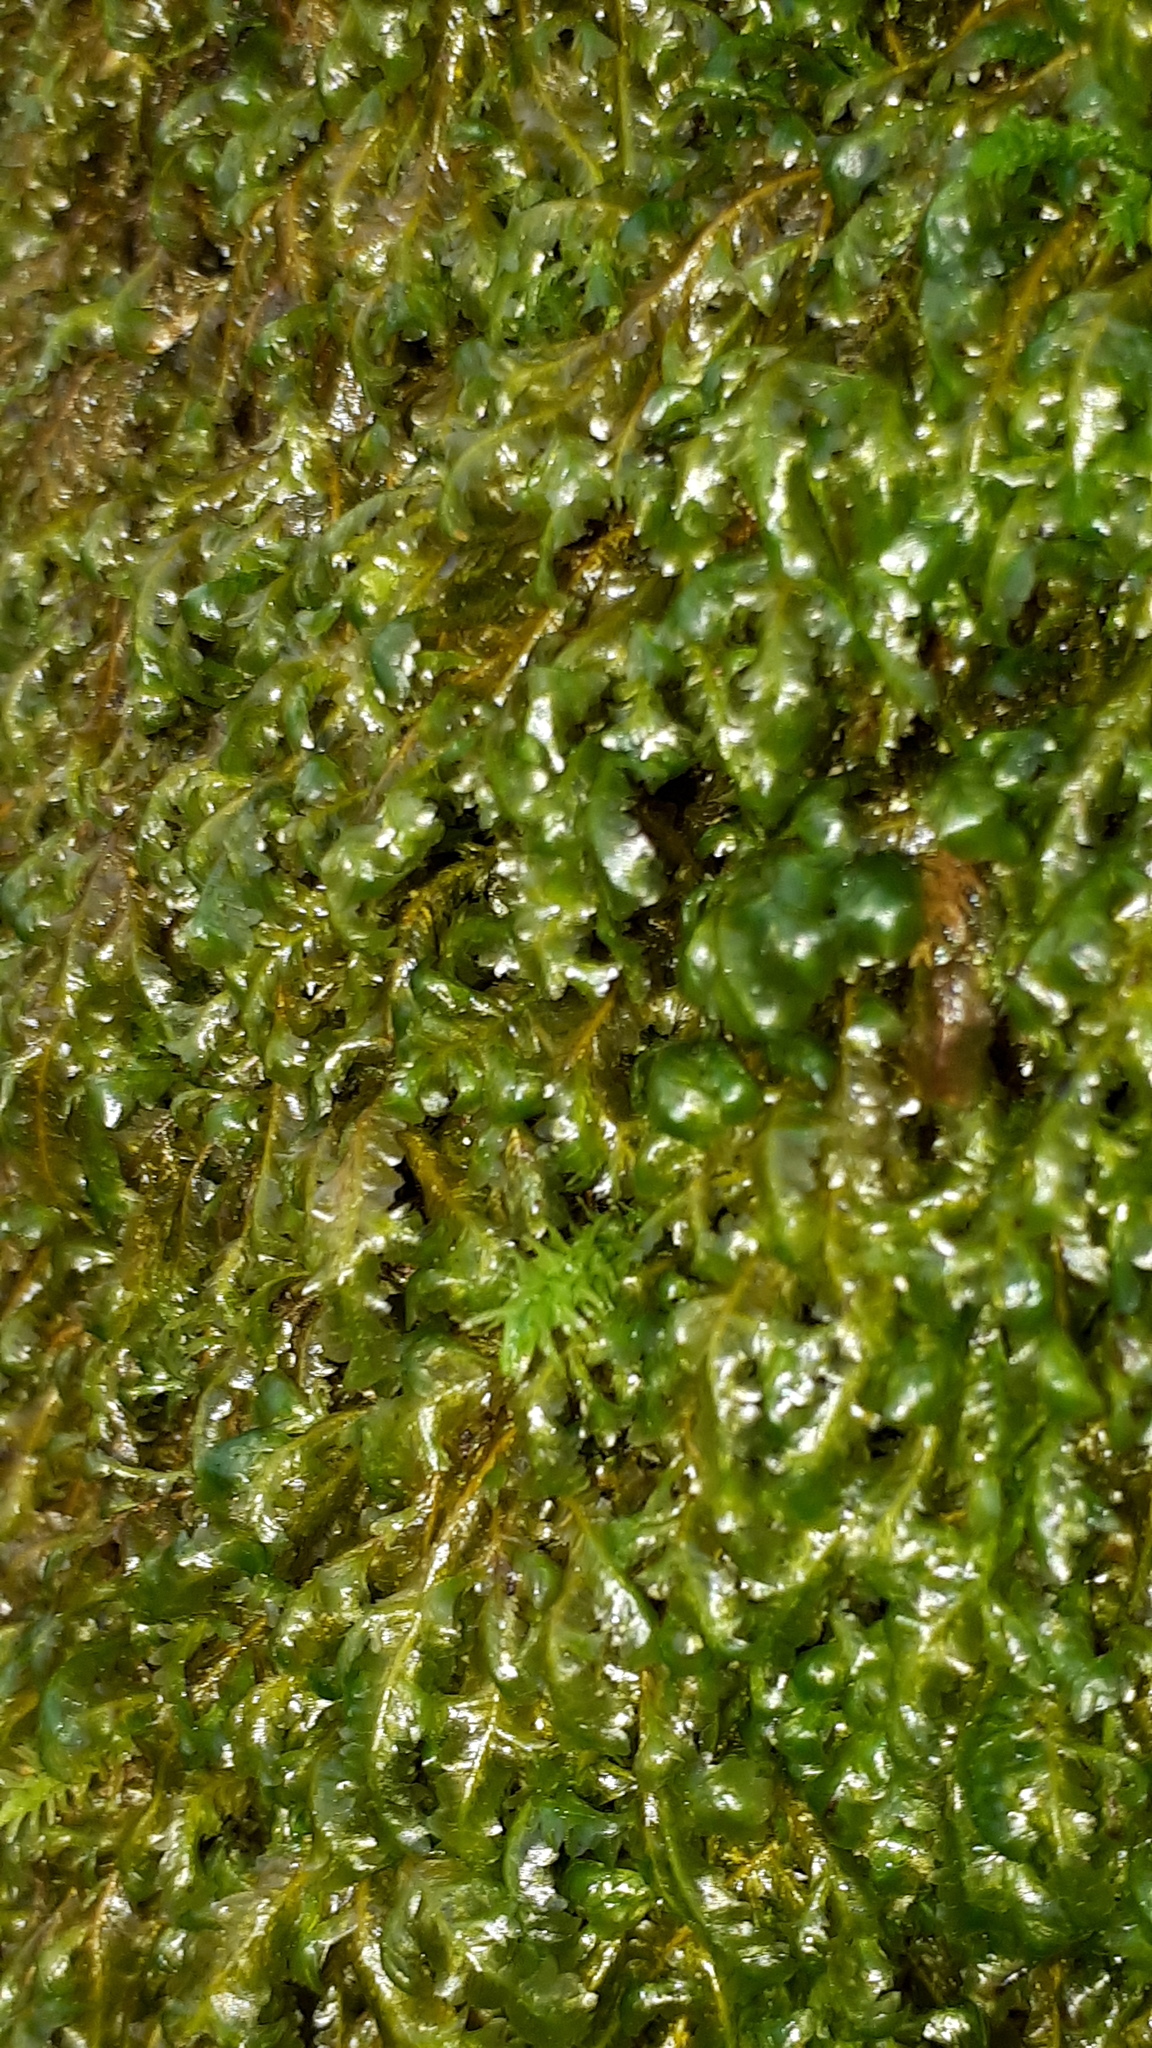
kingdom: Plantae
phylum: Bryophyta
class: Bryopsida
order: Hypnales
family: Neckeraceae
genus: Homalia
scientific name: Homalia trichomanoides
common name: Lime homalia moss
